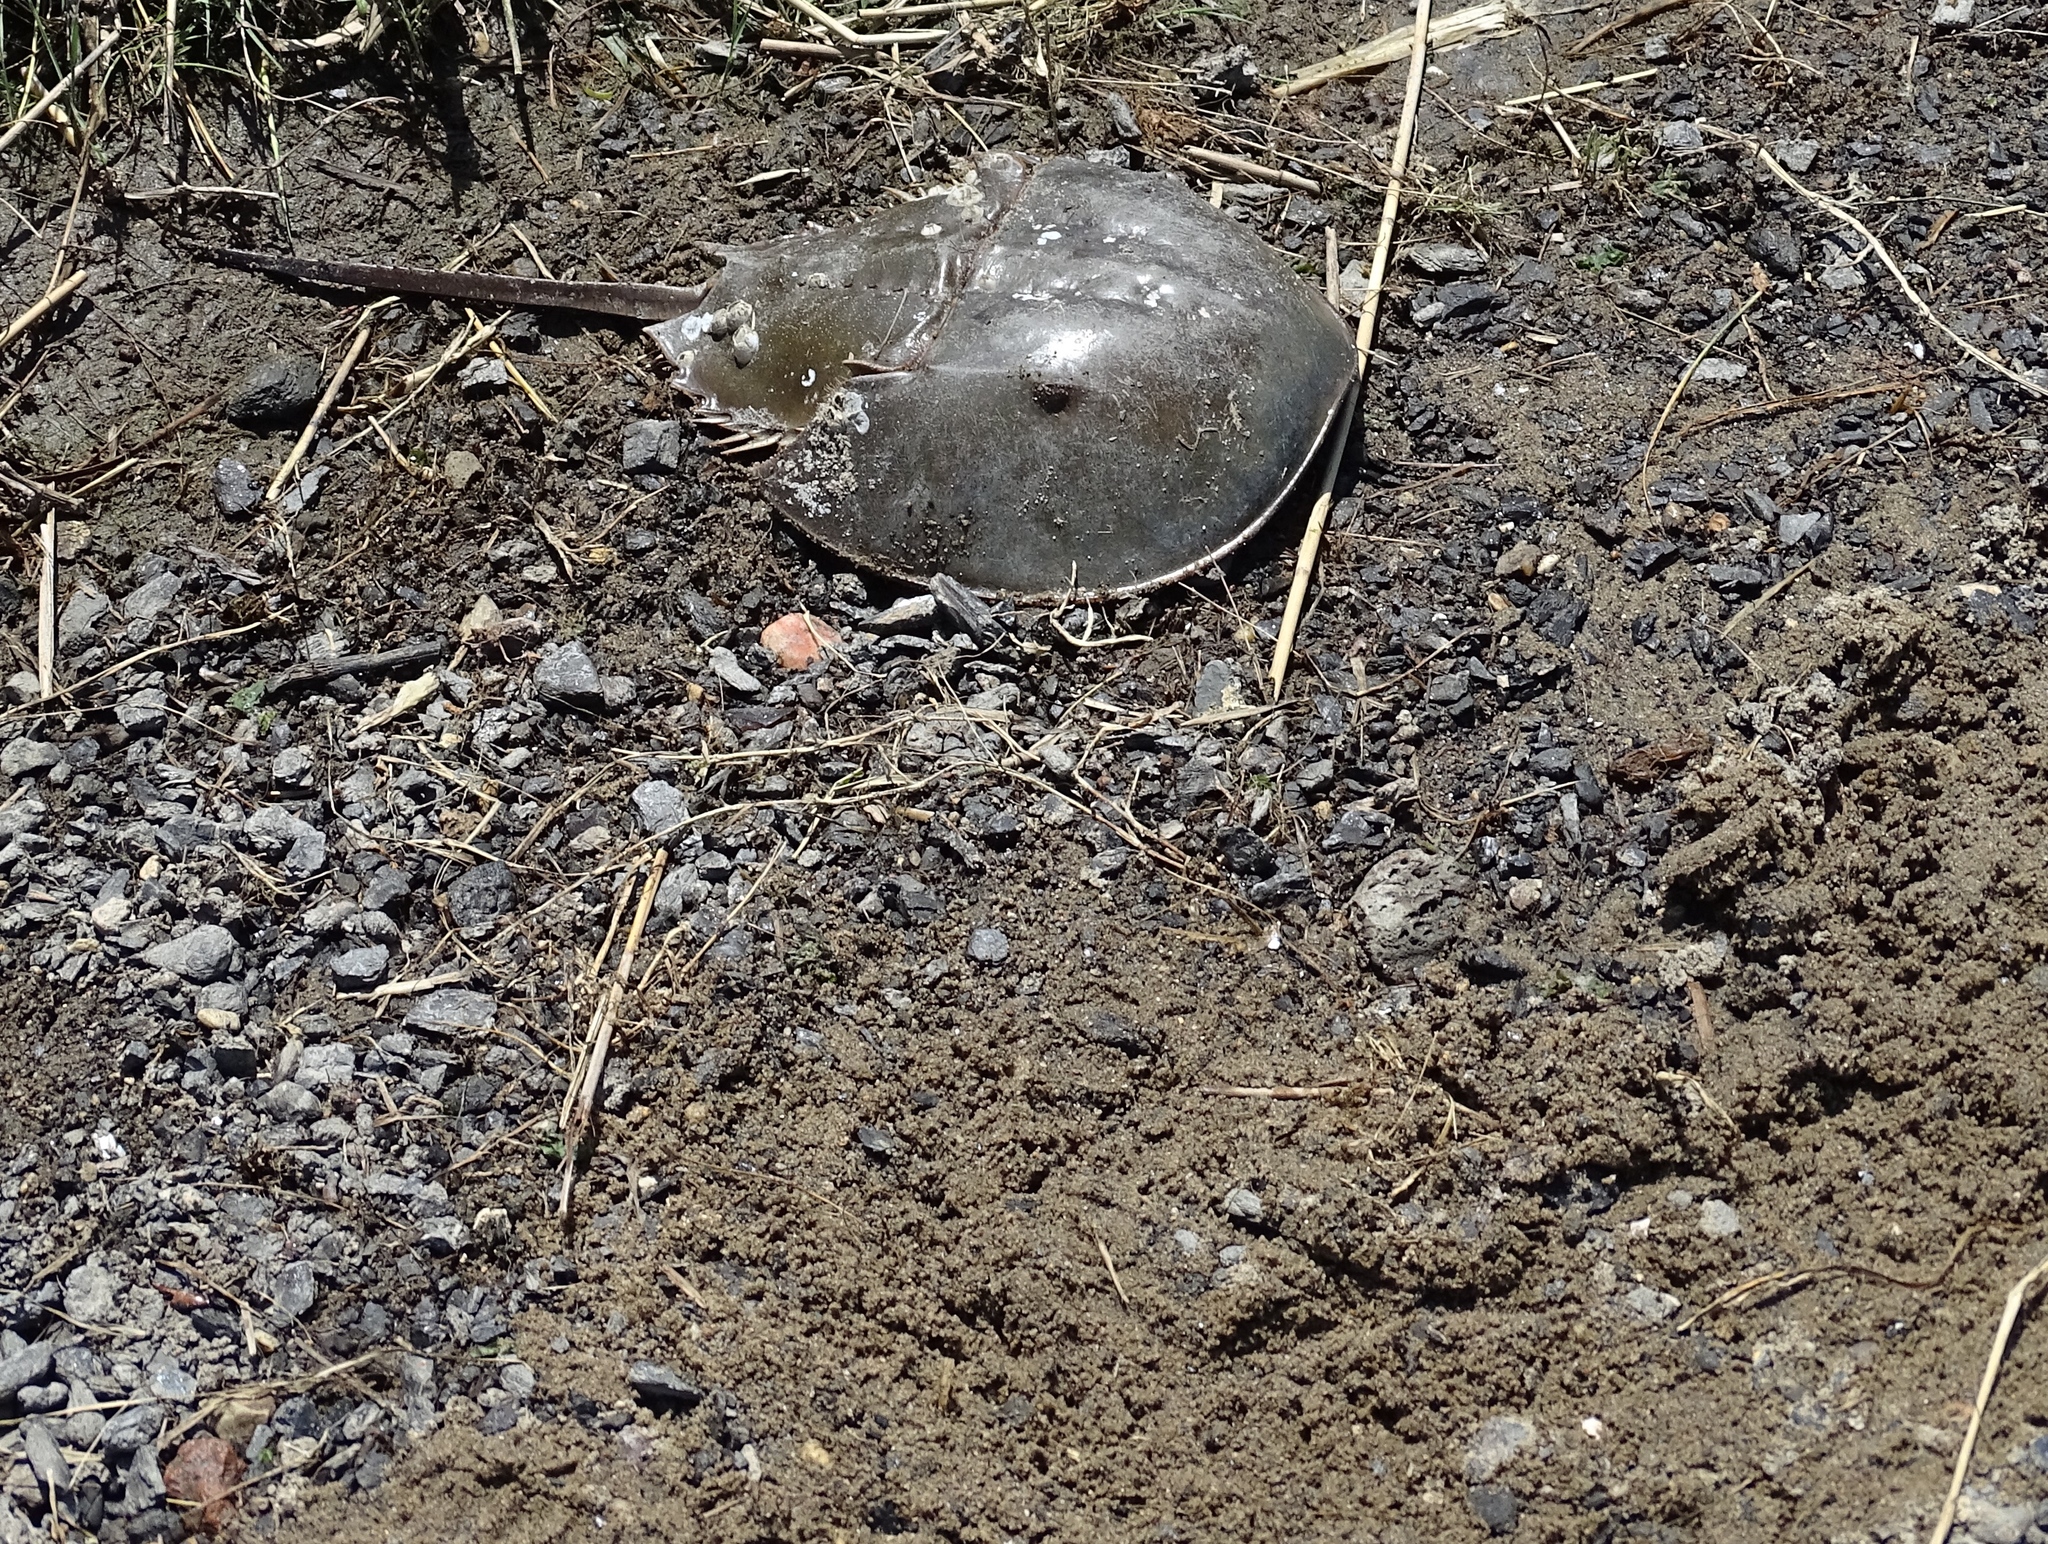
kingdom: Animalia
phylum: Arthropoda
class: Merostomata
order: Xiphosurida
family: Limulidae
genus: Limulus
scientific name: Limulus polyphemus
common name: Horseshoe crab
